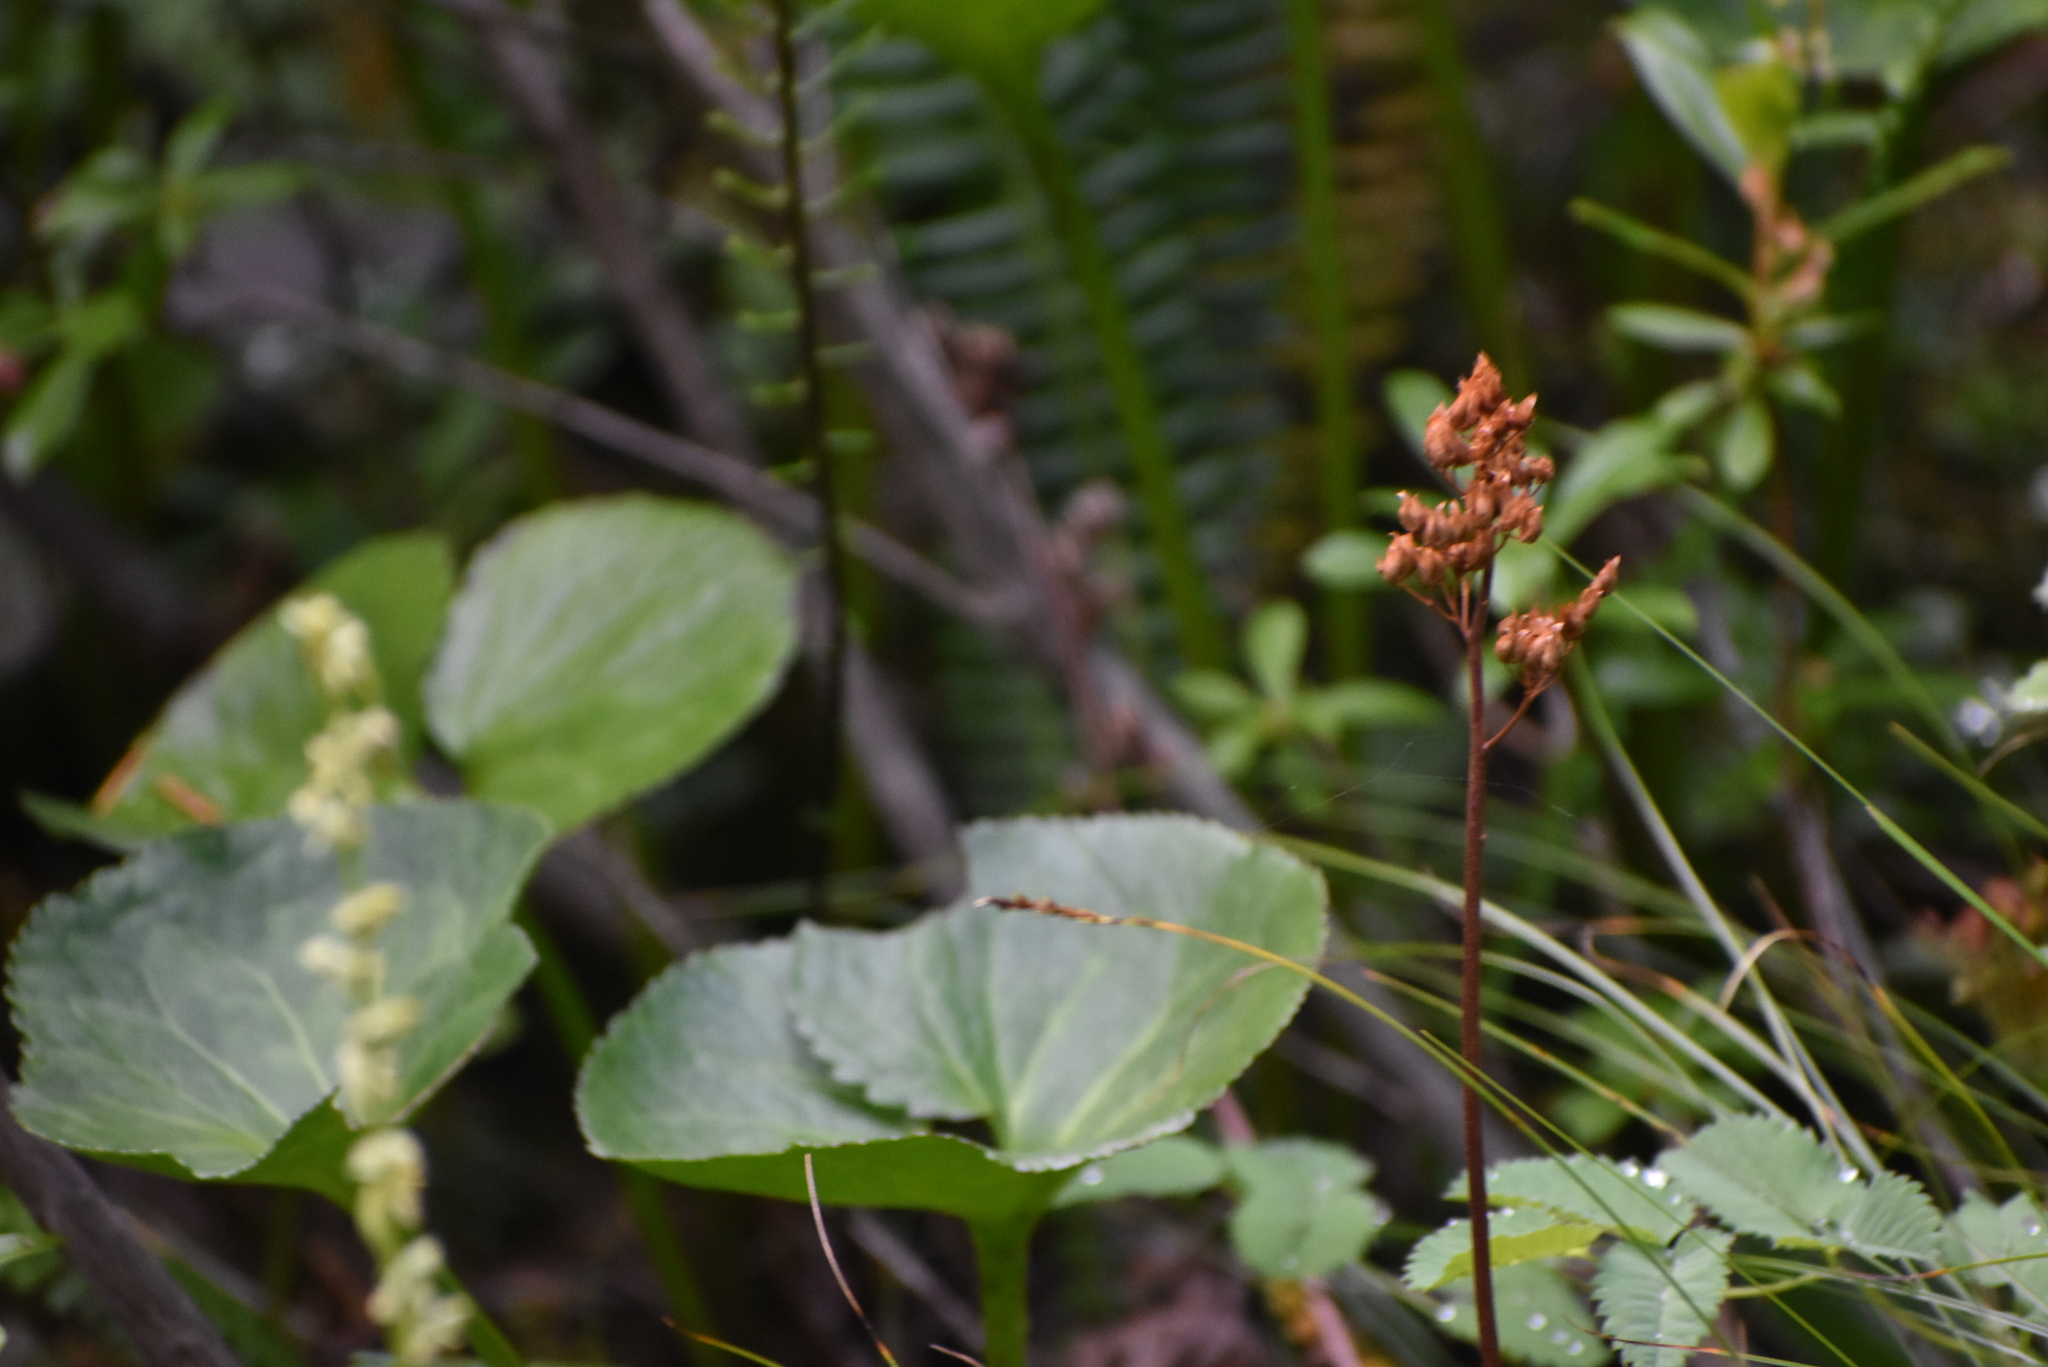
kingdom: Plantae
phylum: Tracheophyta
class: Magnoliopsida
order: Saxifragales
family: Saxifragaceae
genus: Leptarrhena
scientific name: Leptarrhena pyrolifolia
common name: Leatherleaf-saxifrage
